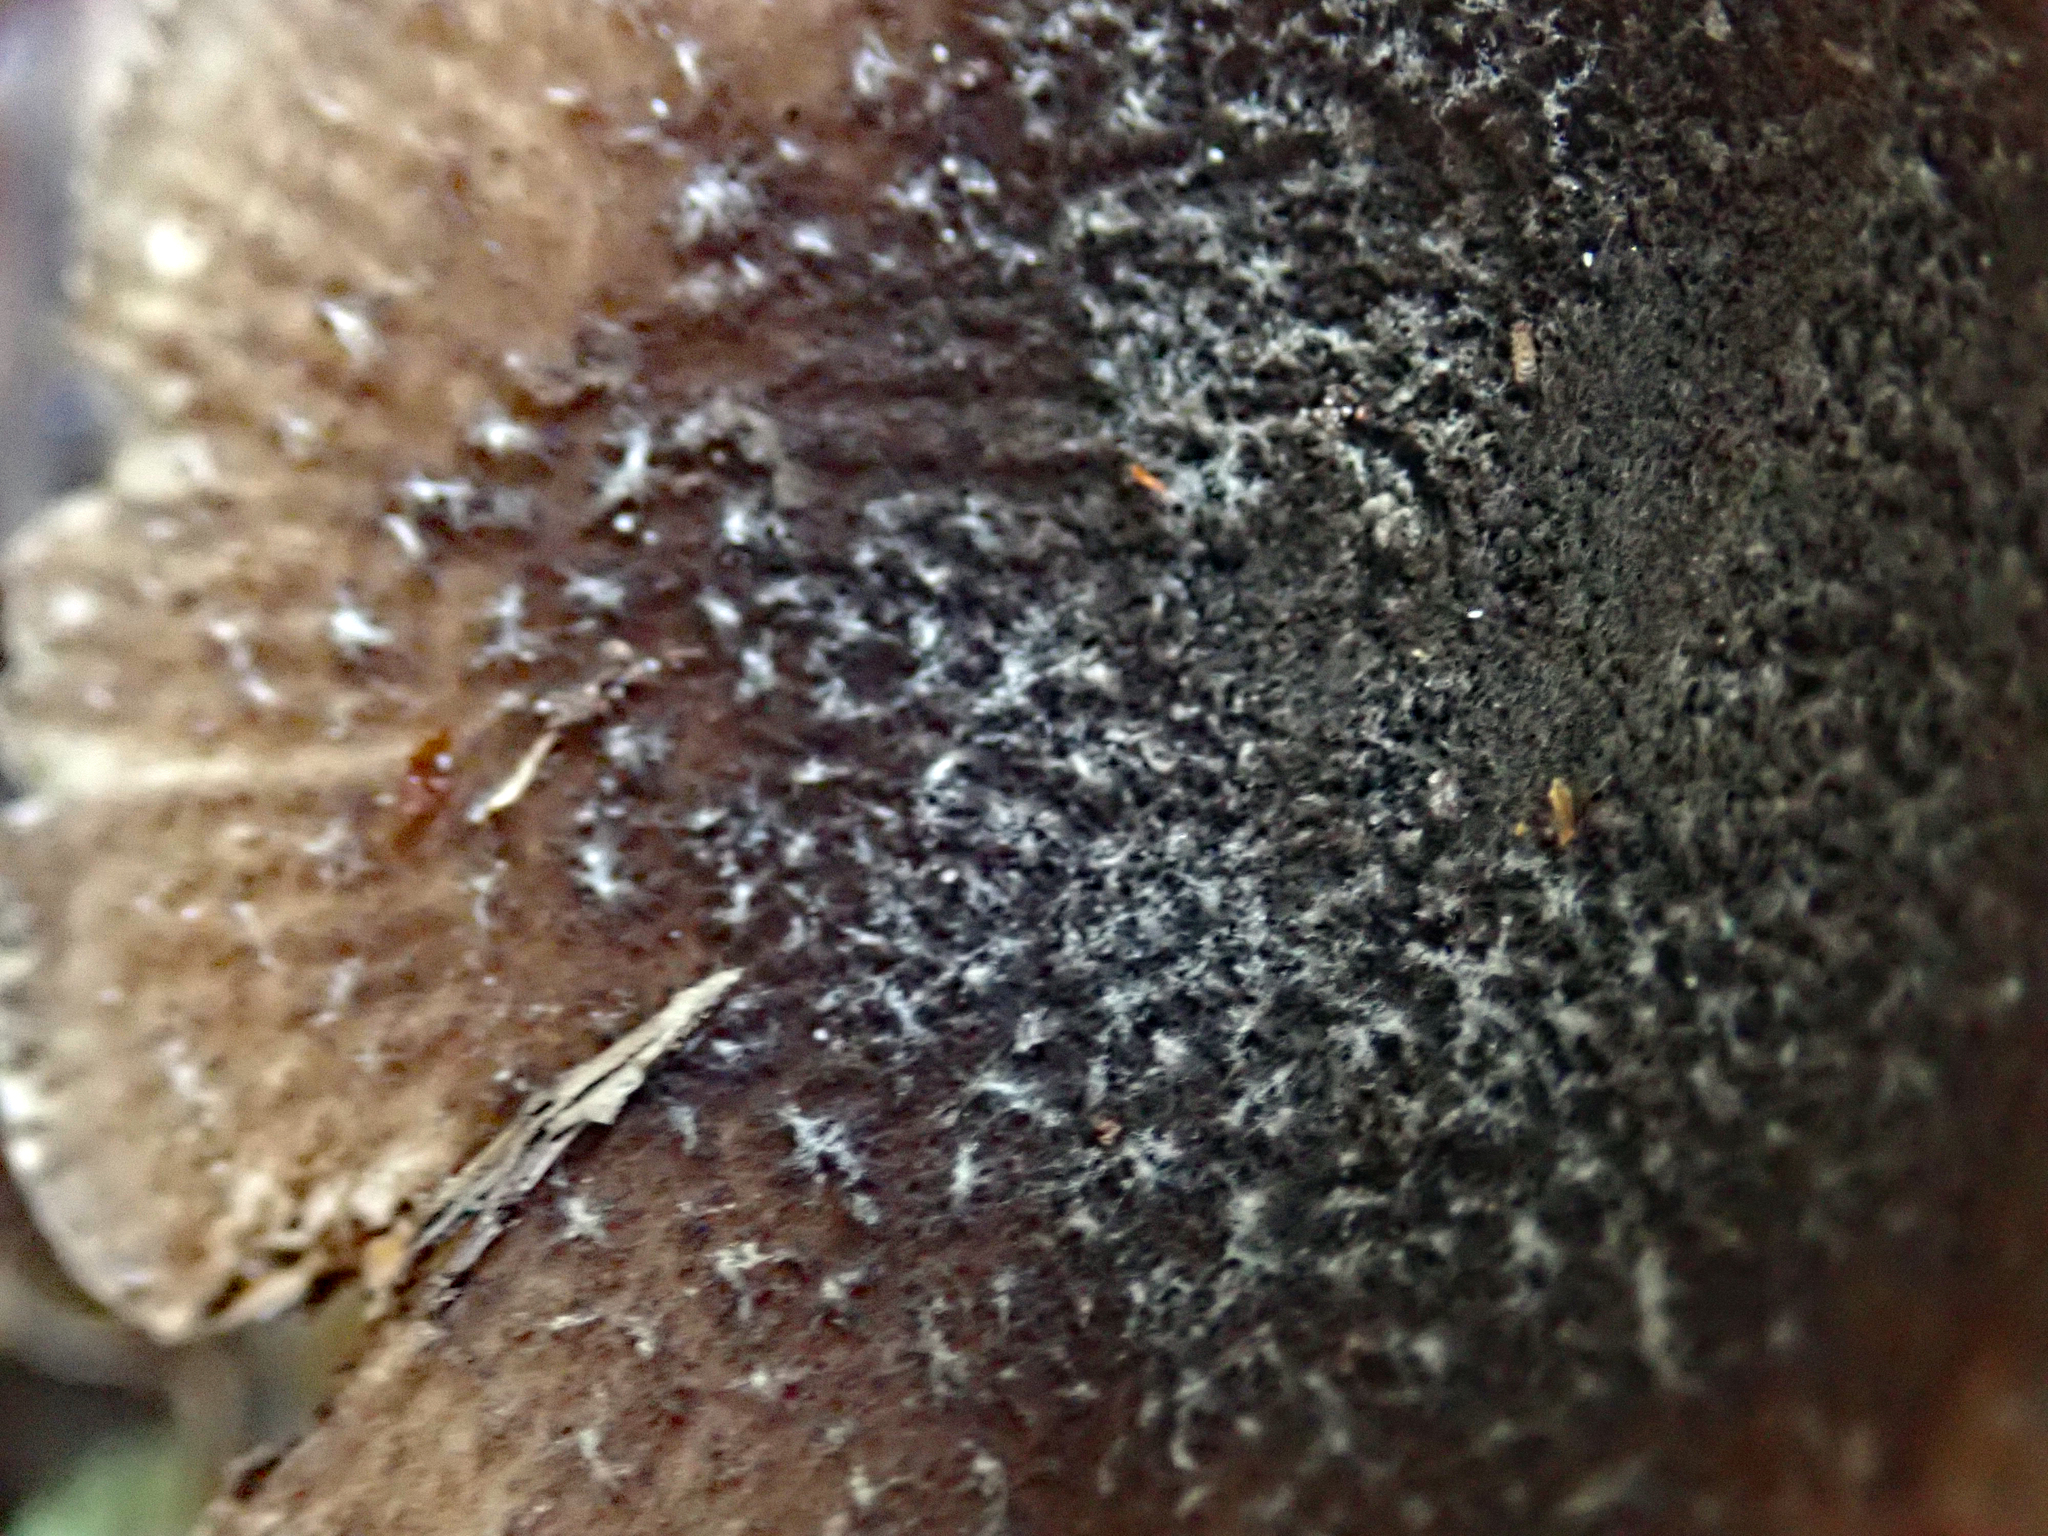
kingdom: Fungi
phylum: Basidiomycota
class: Agaricomycetes
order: Agaricales
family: Amanitaceae
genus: Amanita
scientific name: Amanita nehuta
